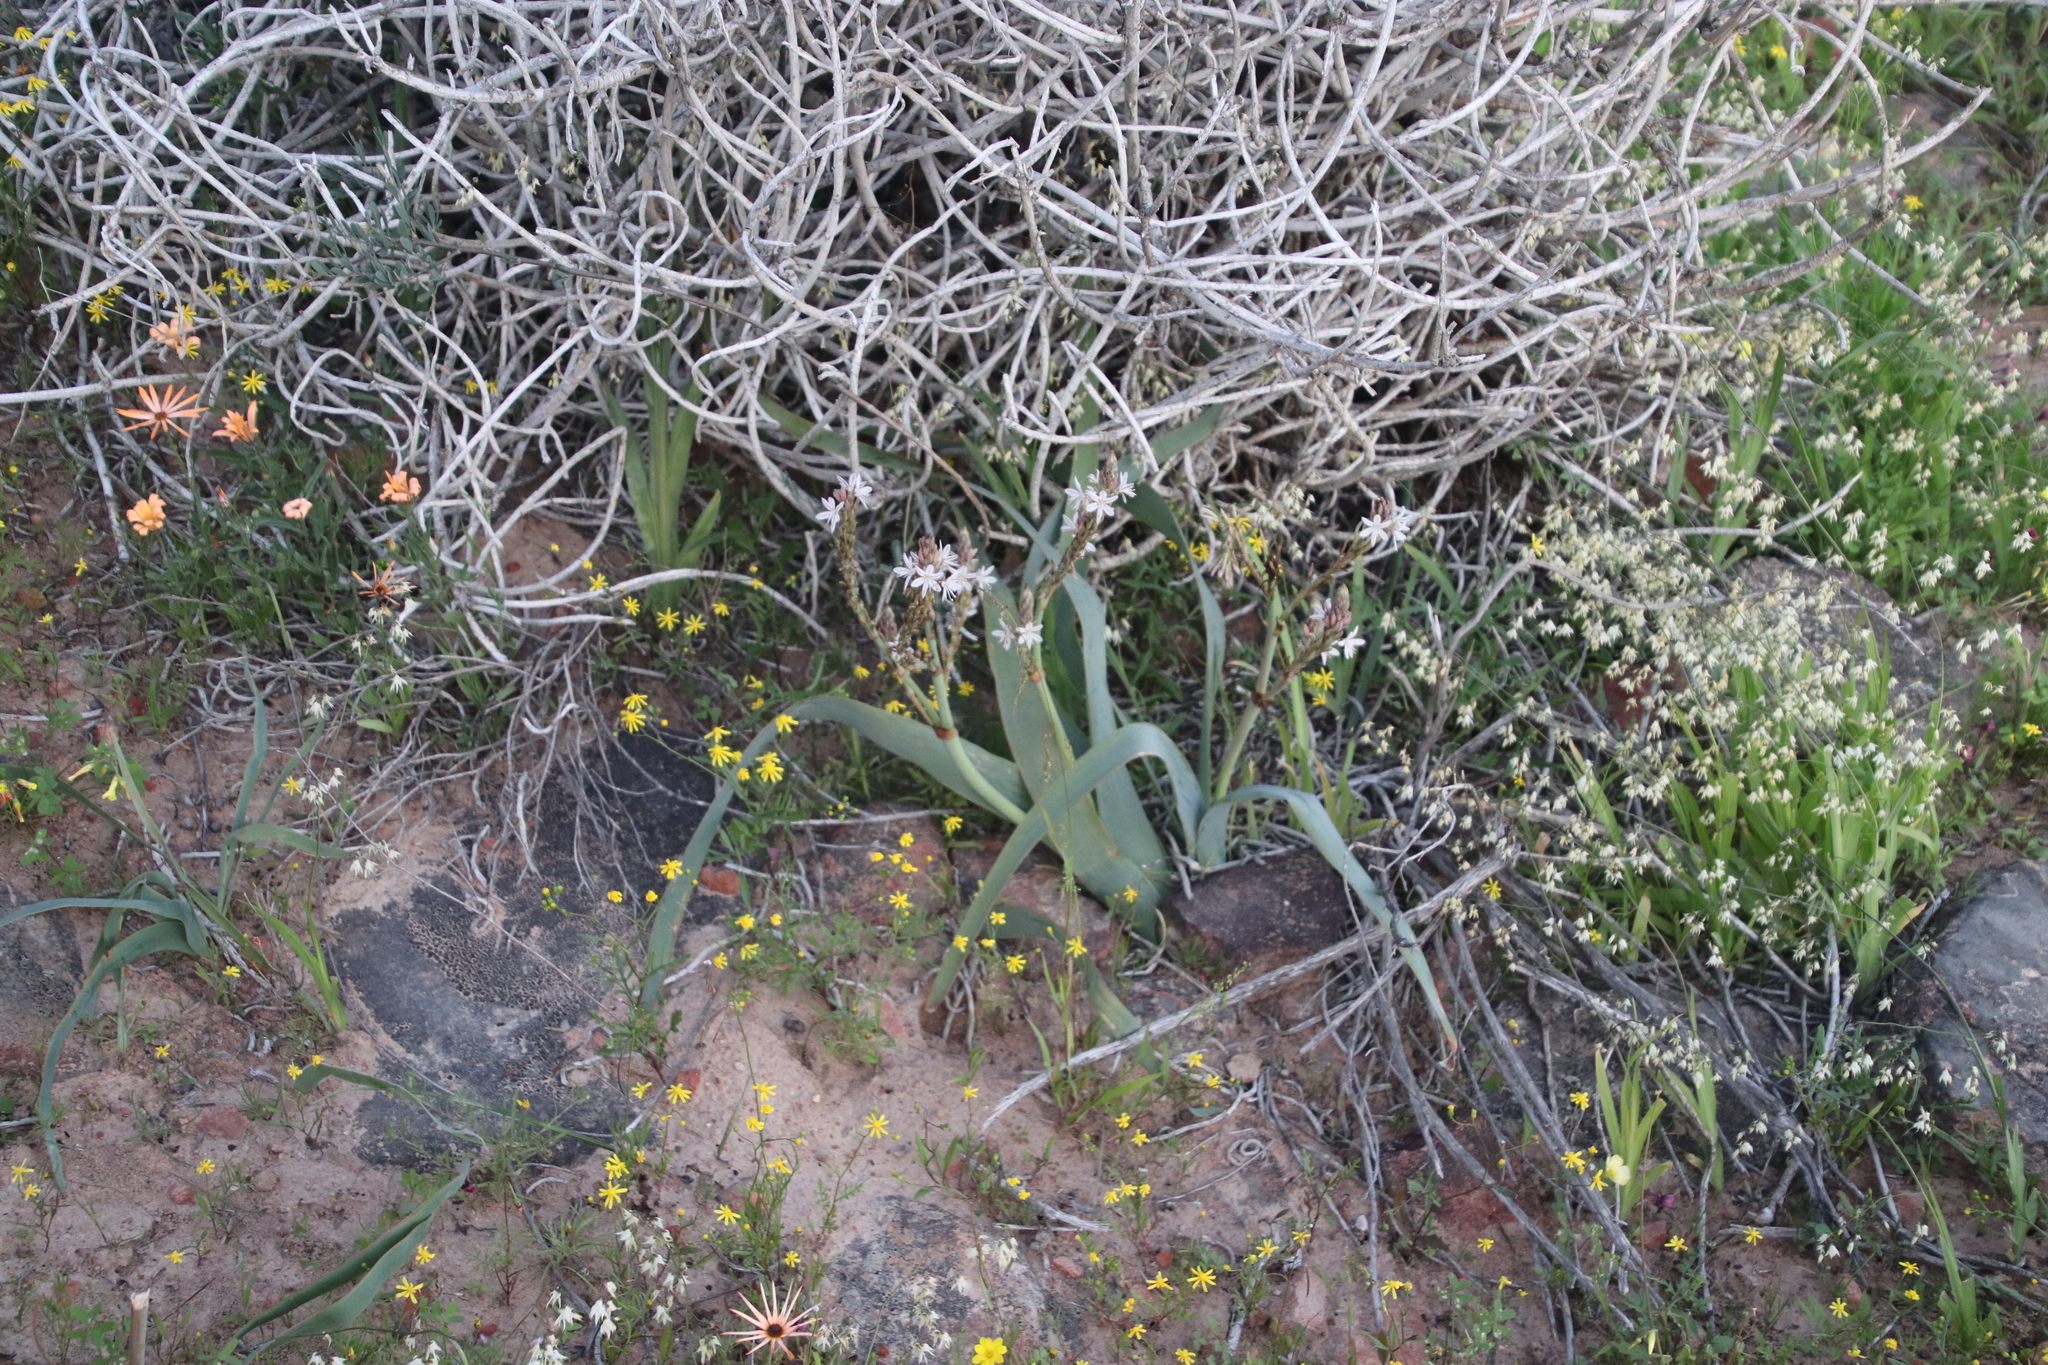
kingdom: Plantae
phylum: Tracheophyta
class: Liliopsida
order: Asparagales
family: Asphodelaceae
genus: Trachyandra
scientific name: Trachyandra falcata
